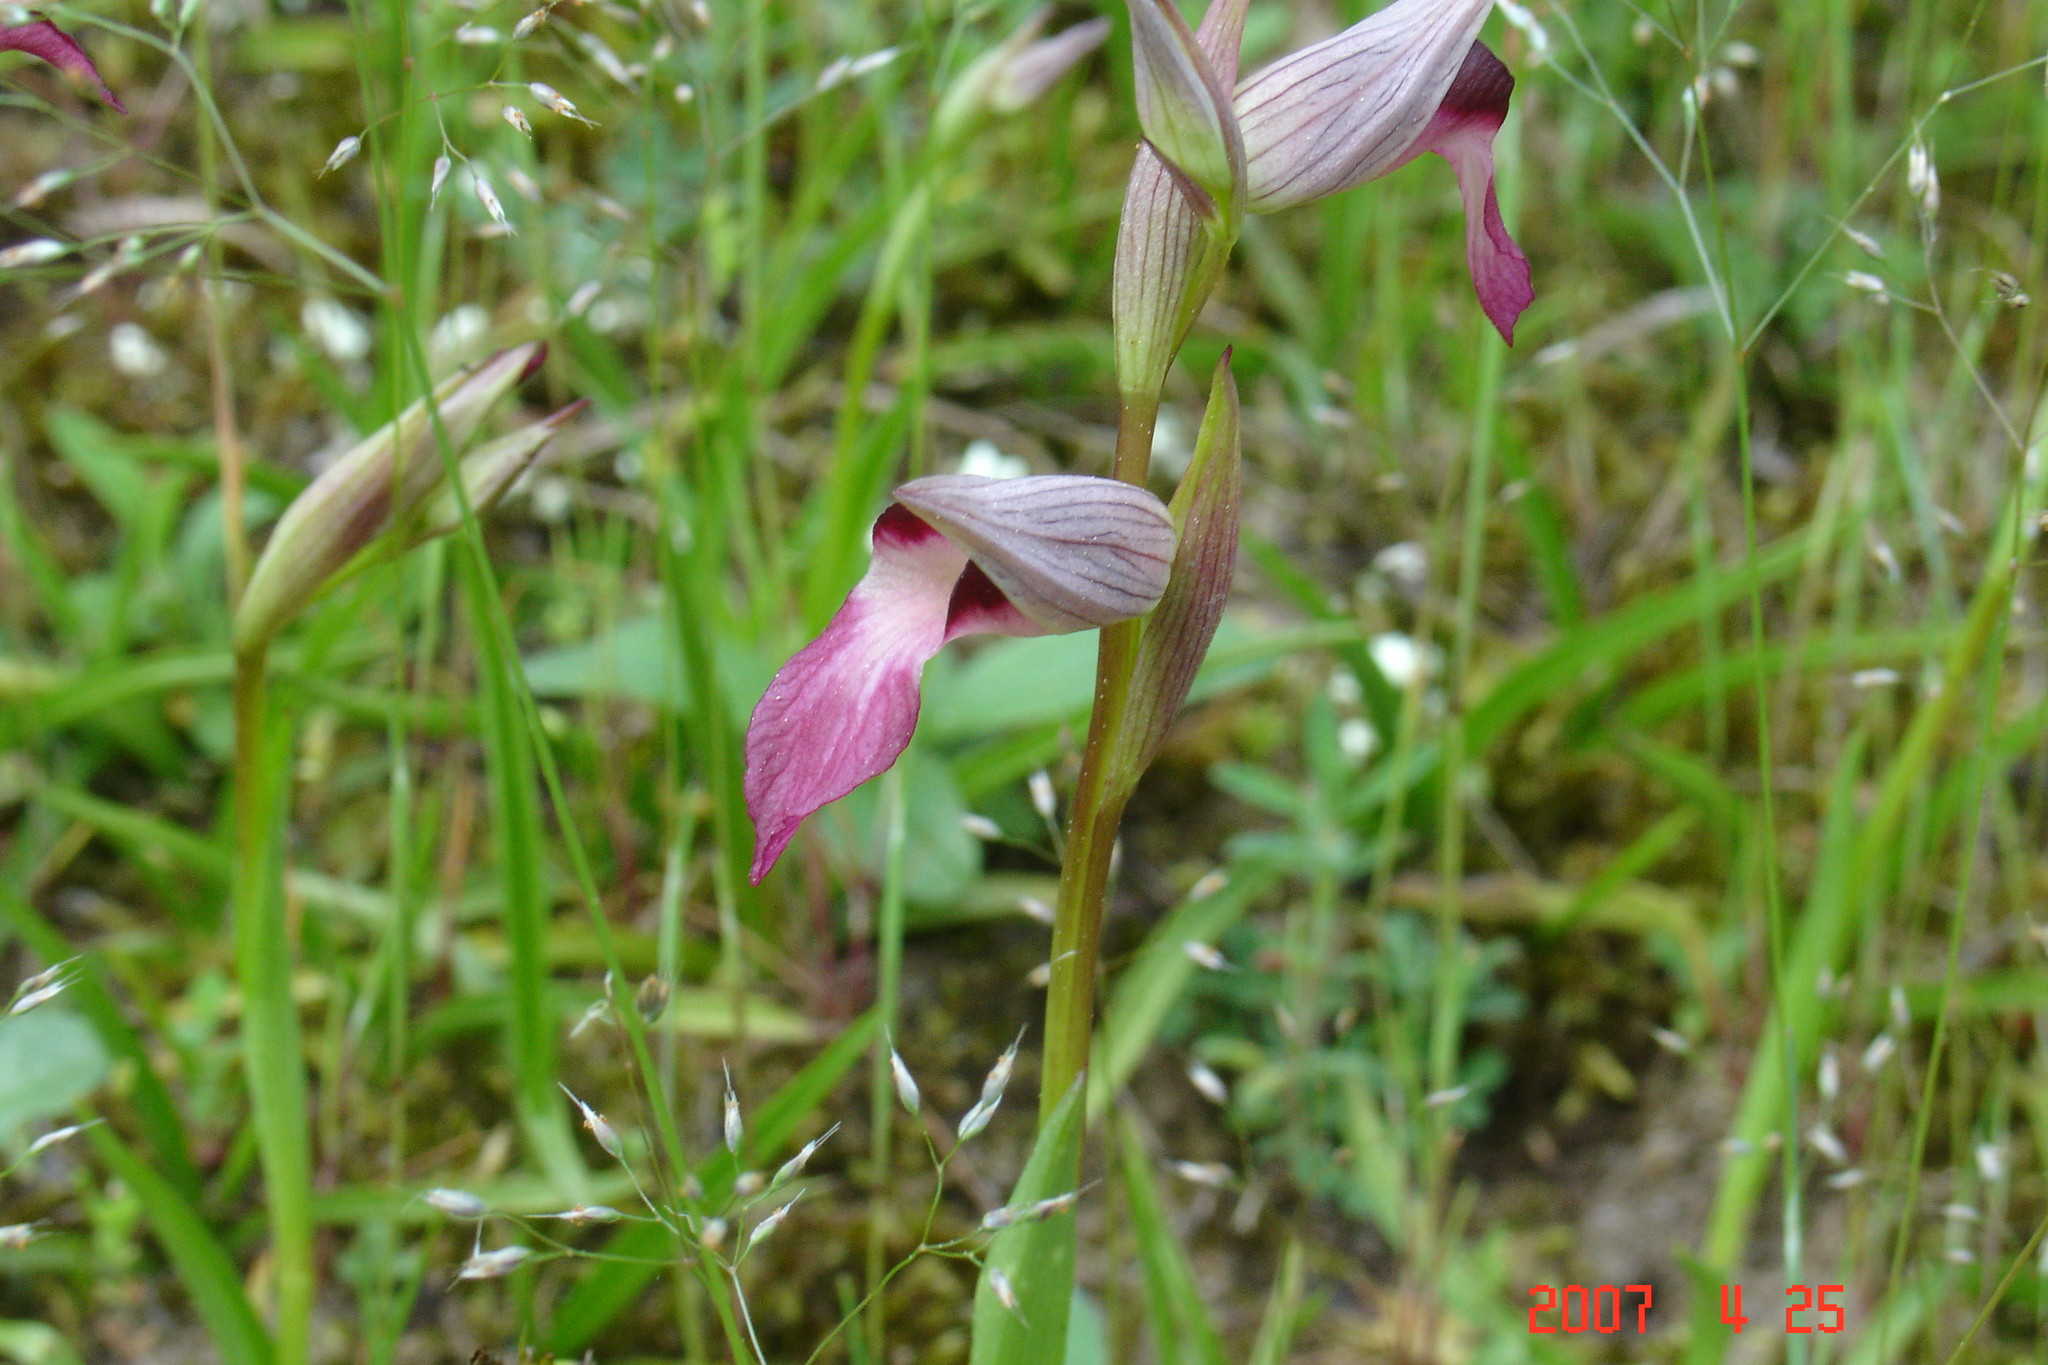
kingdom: Plantae
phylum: Tracheophyta
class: Liliopsida
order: Asparagales
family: Orchidaceae
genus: Serapias
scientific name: Serapias lingua
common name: Tongue-orchid
